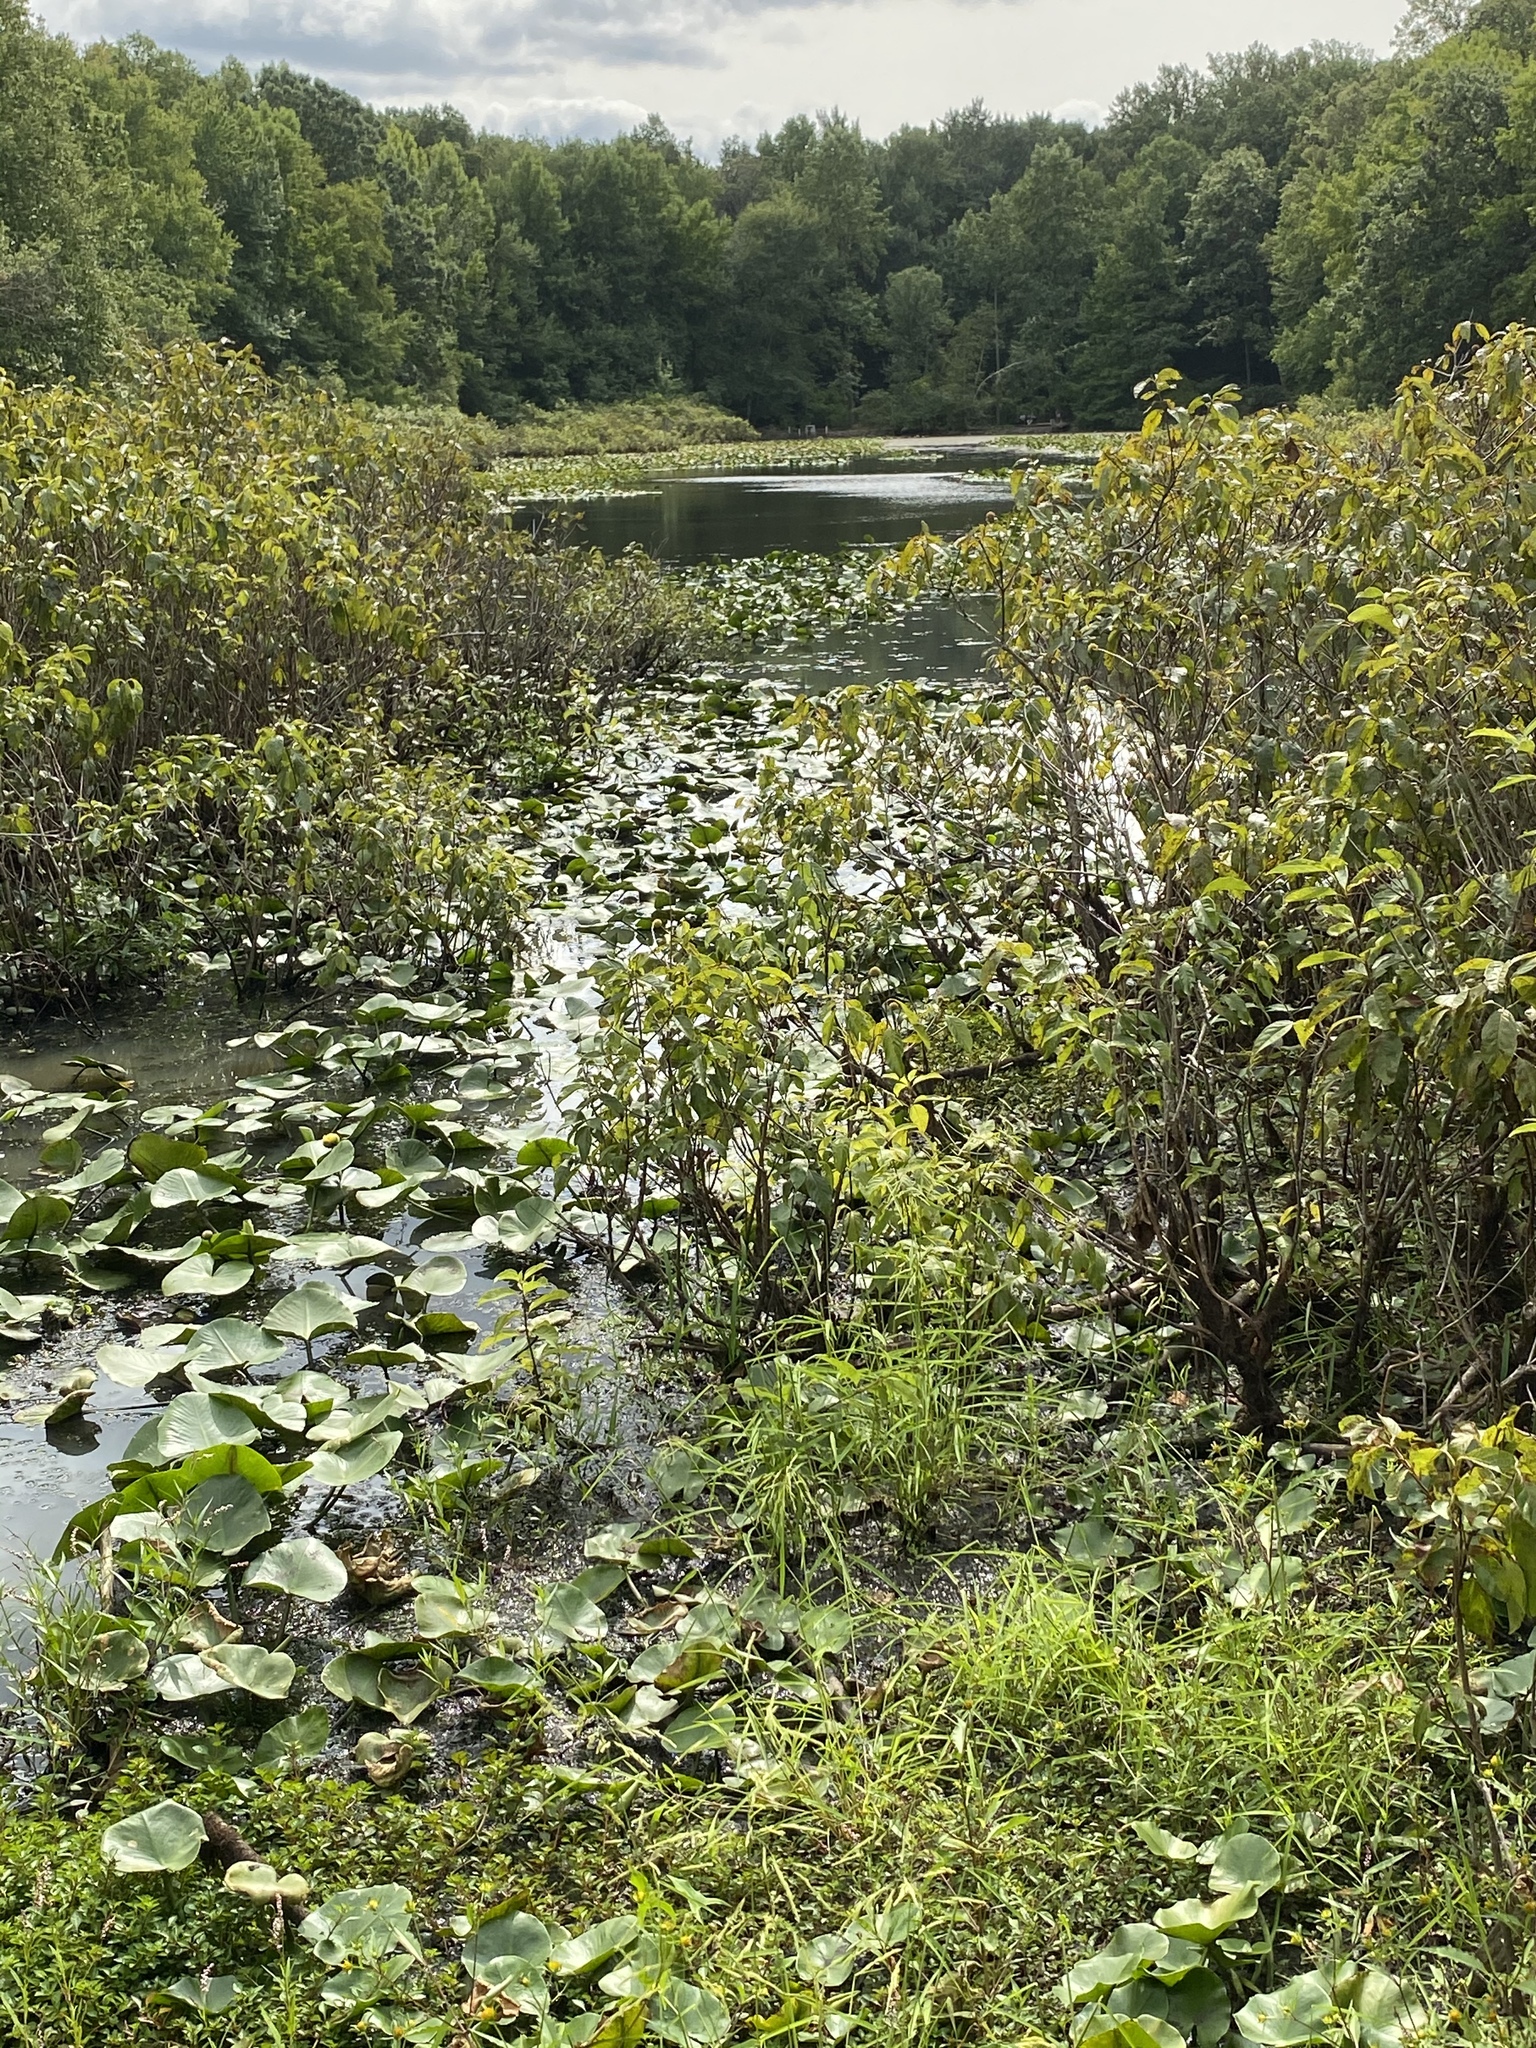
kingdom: Animalia
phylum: Chordata
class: Mammalia
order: Rodentia
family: Sciuridae
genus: Sciurus
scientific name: Sciurus carolinensis
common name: Eastern gray squirrel
